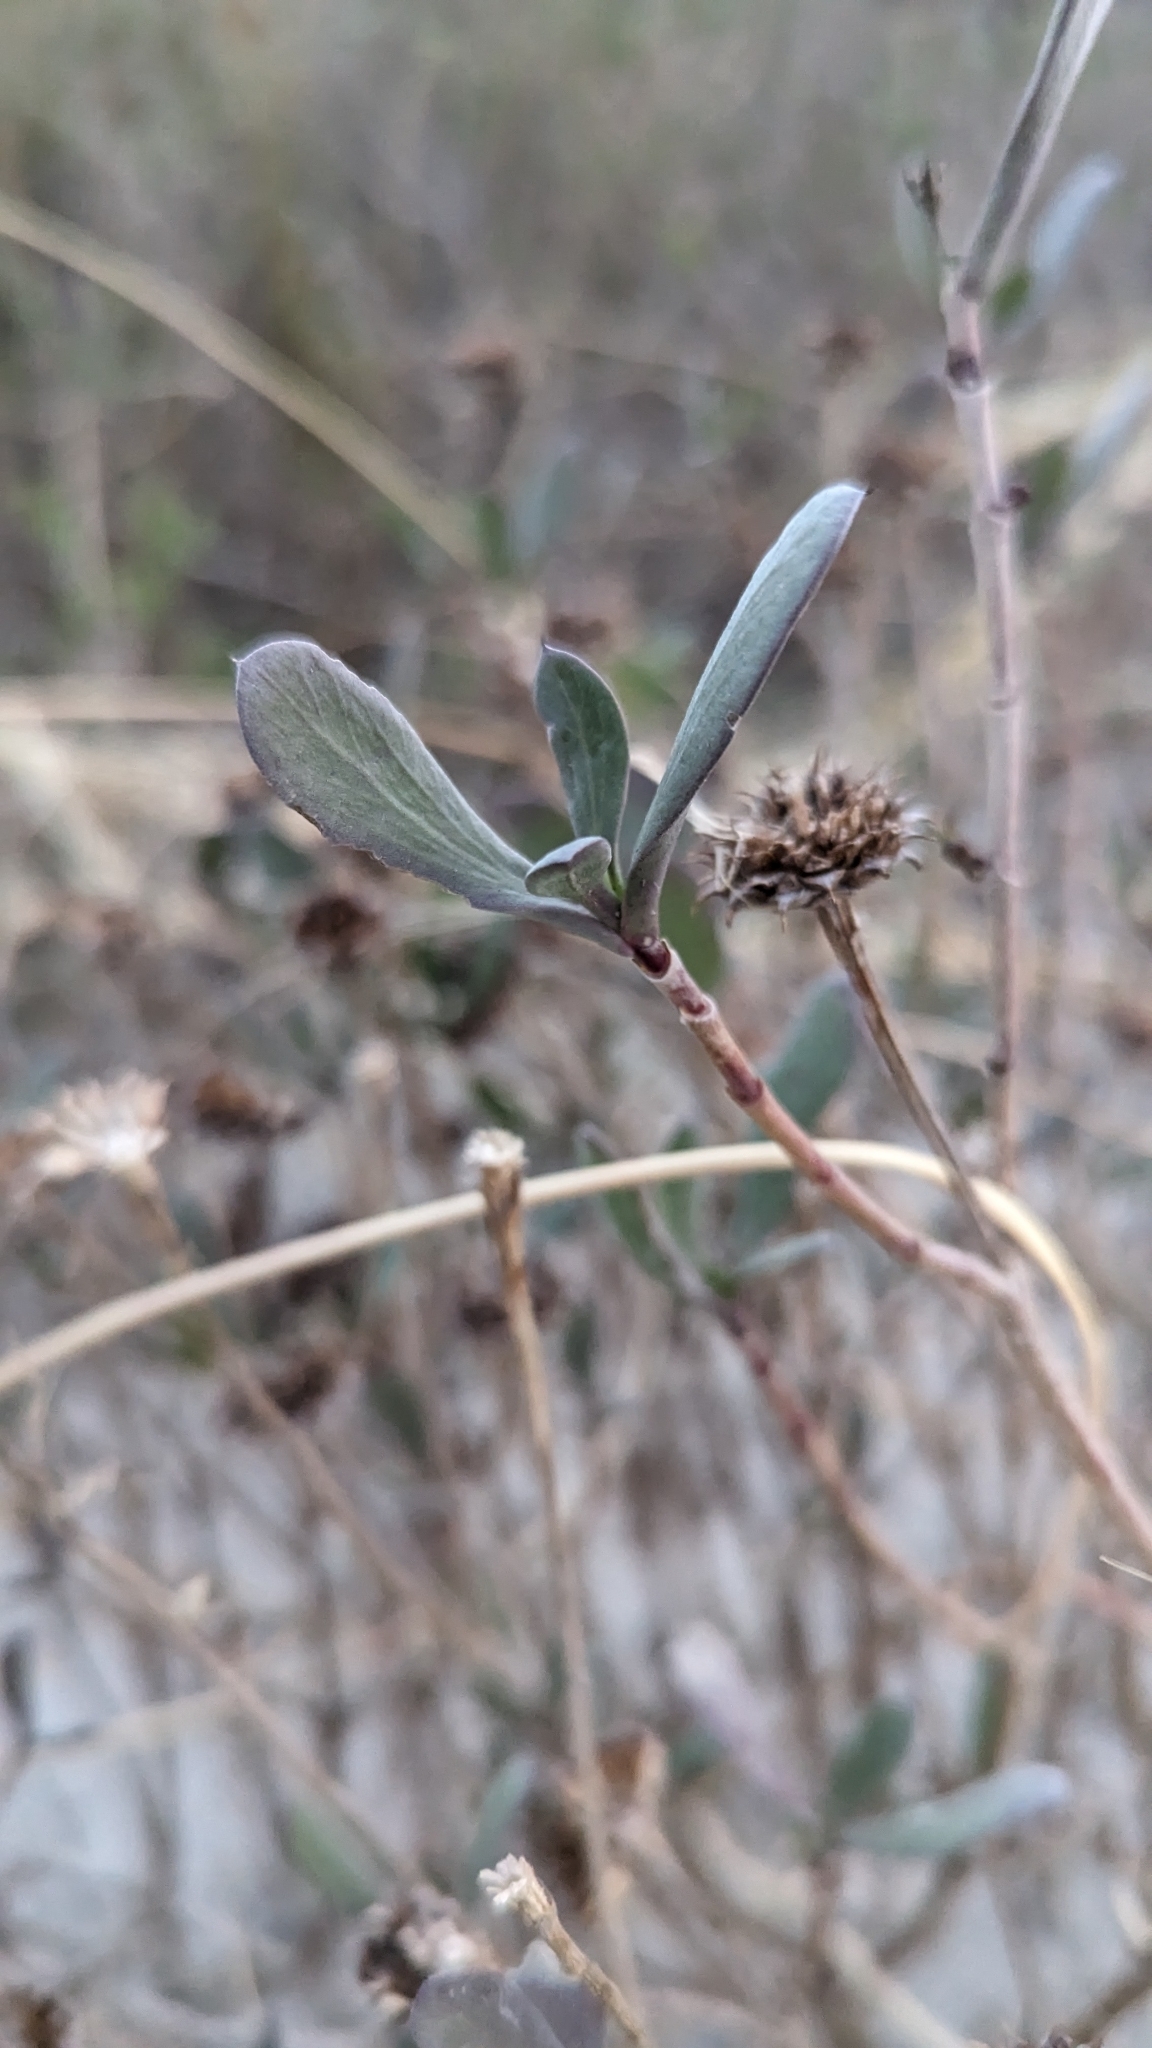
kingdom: Plantae
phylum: Tracheophyta
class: Magnoliopsida
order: Asterales
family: Asteraceae
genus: Borrichia
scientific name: Borrichia frutescens
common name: Sea oxeye
